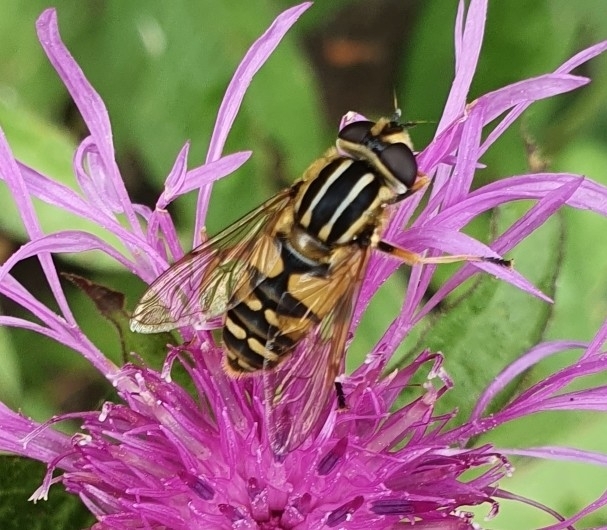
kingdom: Animalia
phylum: Arthropoda
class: Insecta
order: Diptera
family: Syrphidae
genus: Helophilus
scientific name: Helophilus pendulus
